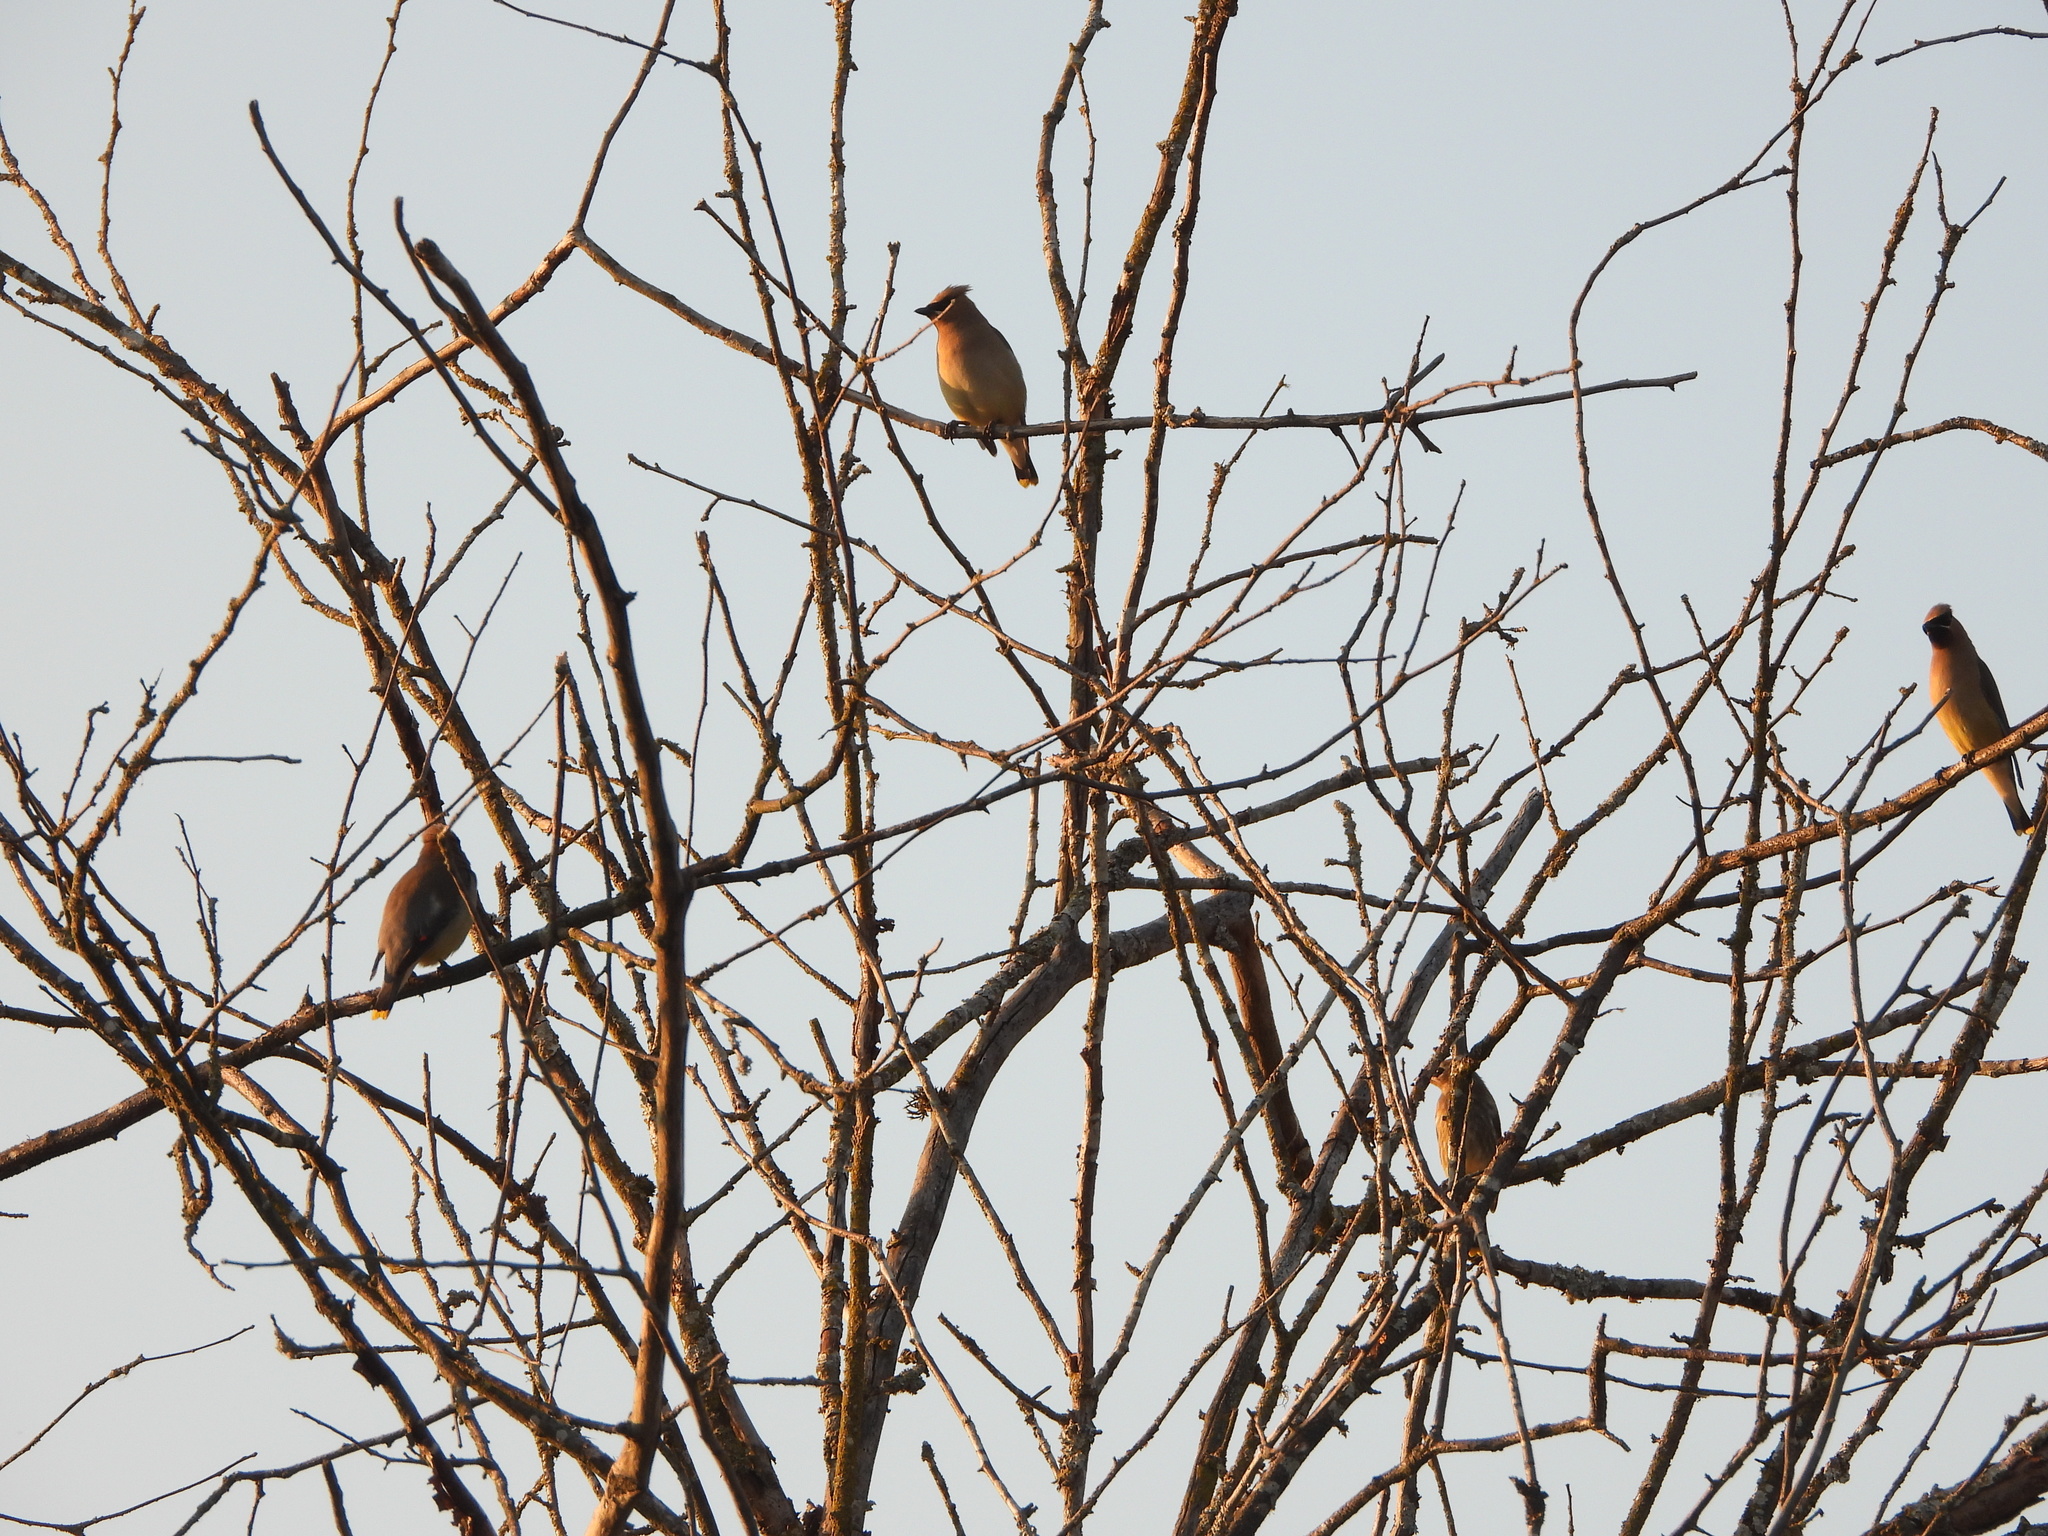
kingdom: Animalia
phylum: Chordata
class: Aves
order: Passeriformes
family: Bombycillidae
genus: Bombycilla
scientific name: Bombycilla cedrorum
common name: Cedar waxwing
